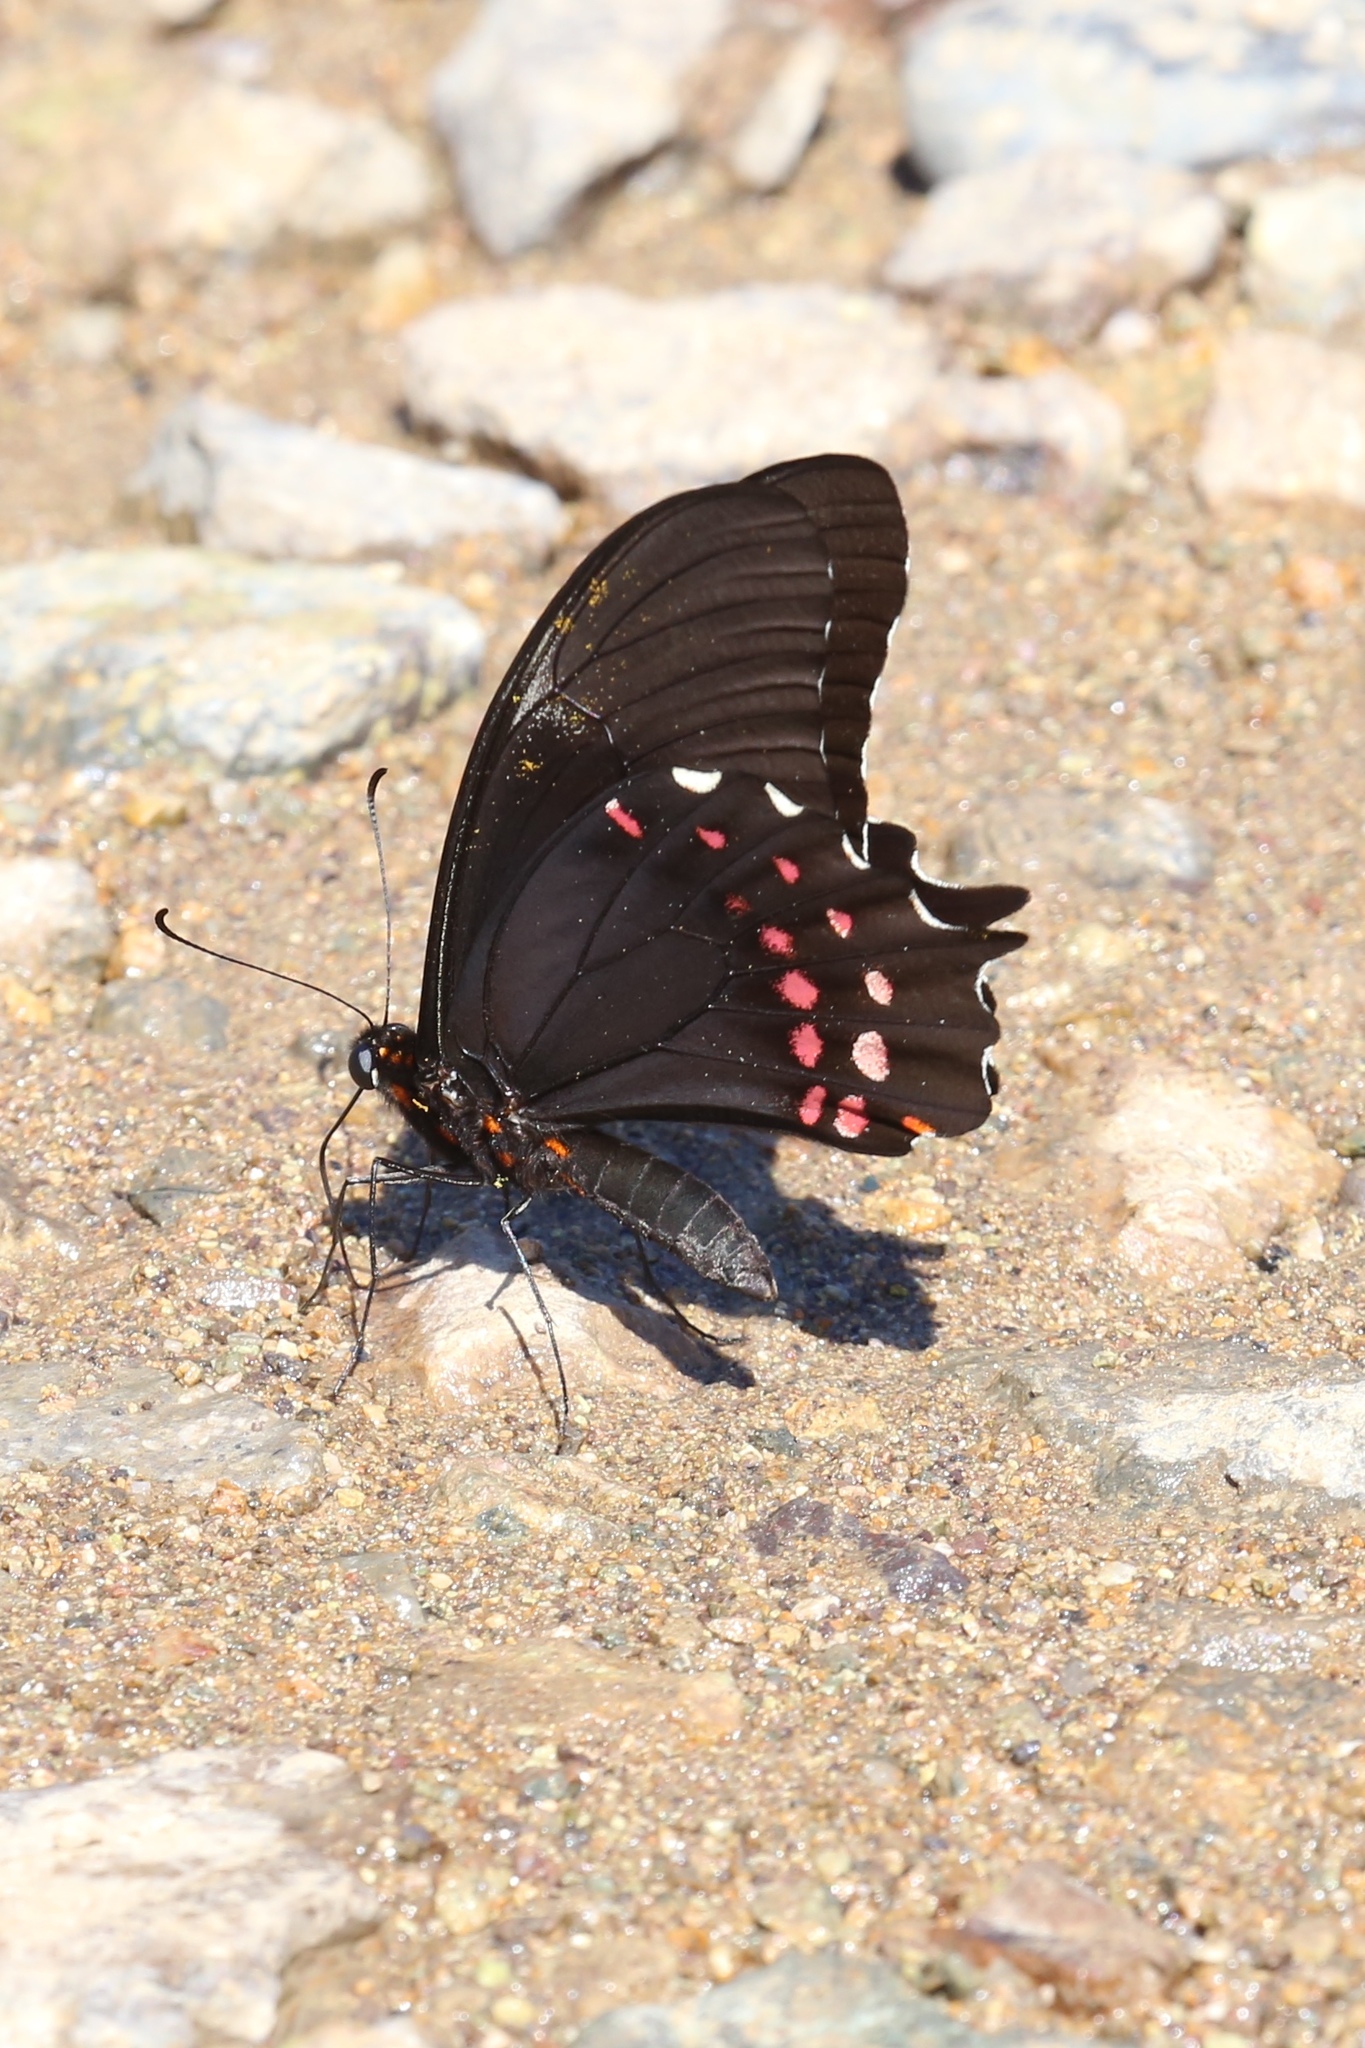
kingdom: Animalia
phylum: Arthropoda
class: Insecta
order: Lepidoptera
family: Papilionidae
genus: Heraclides
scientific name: Heraclides rogeri
